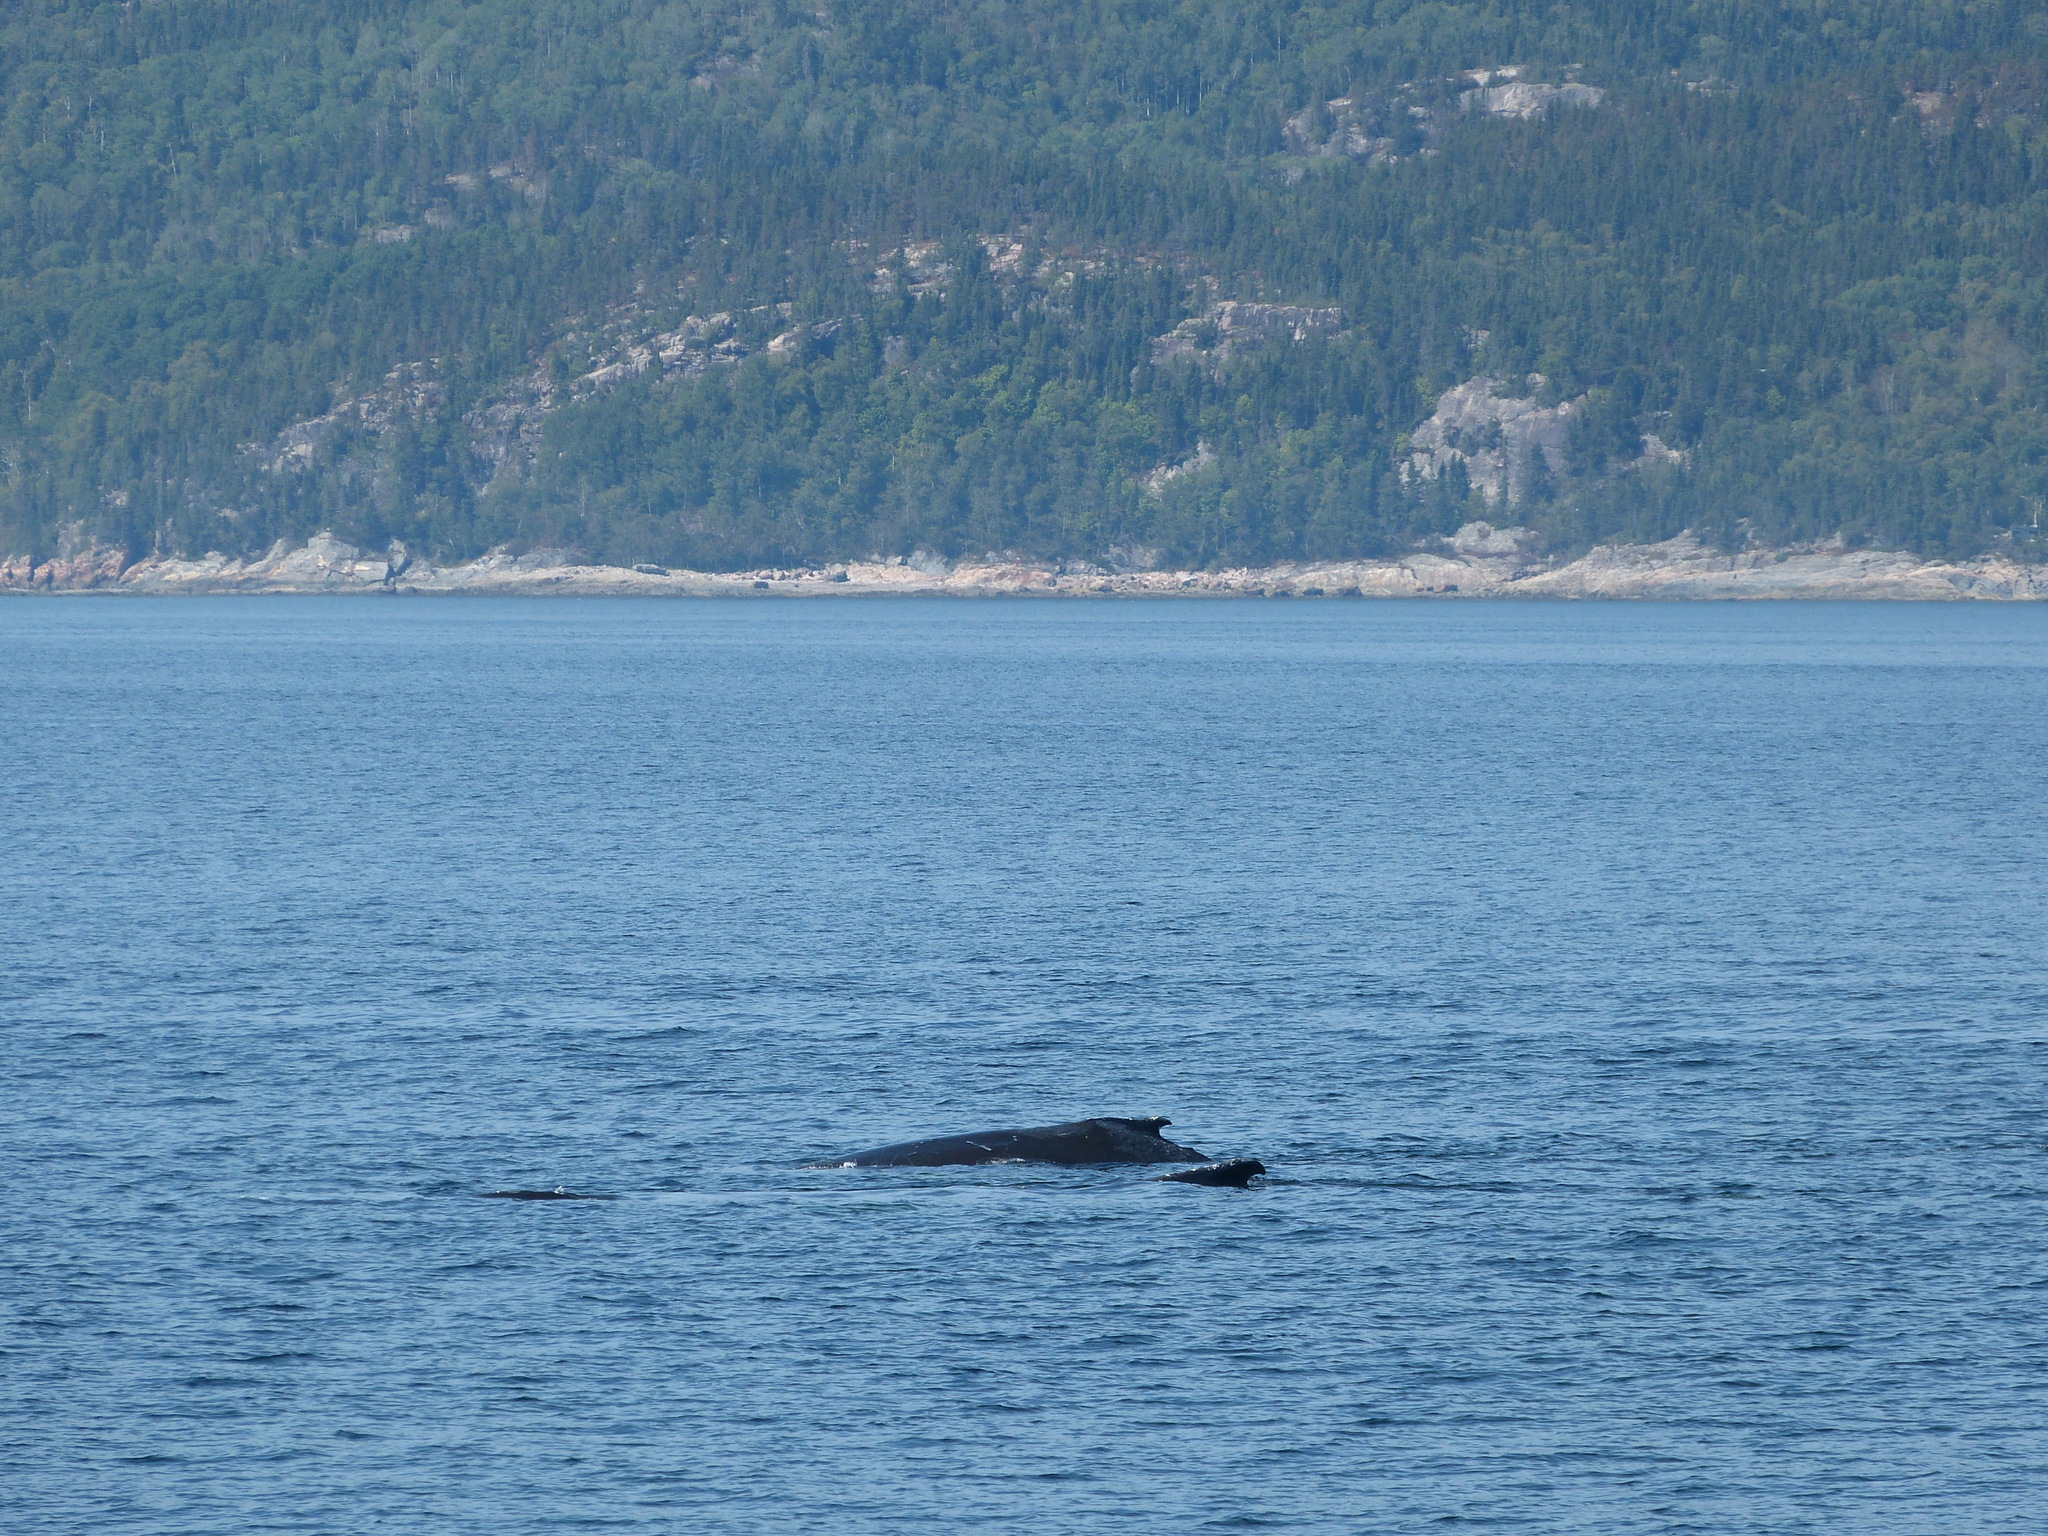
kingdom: Animalia
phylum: Chordata
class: Mammalia
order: Cetacea
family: Balaenopteridae
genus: Megaptera
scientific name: Megaptera novaeangliae
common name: Humpback whale
